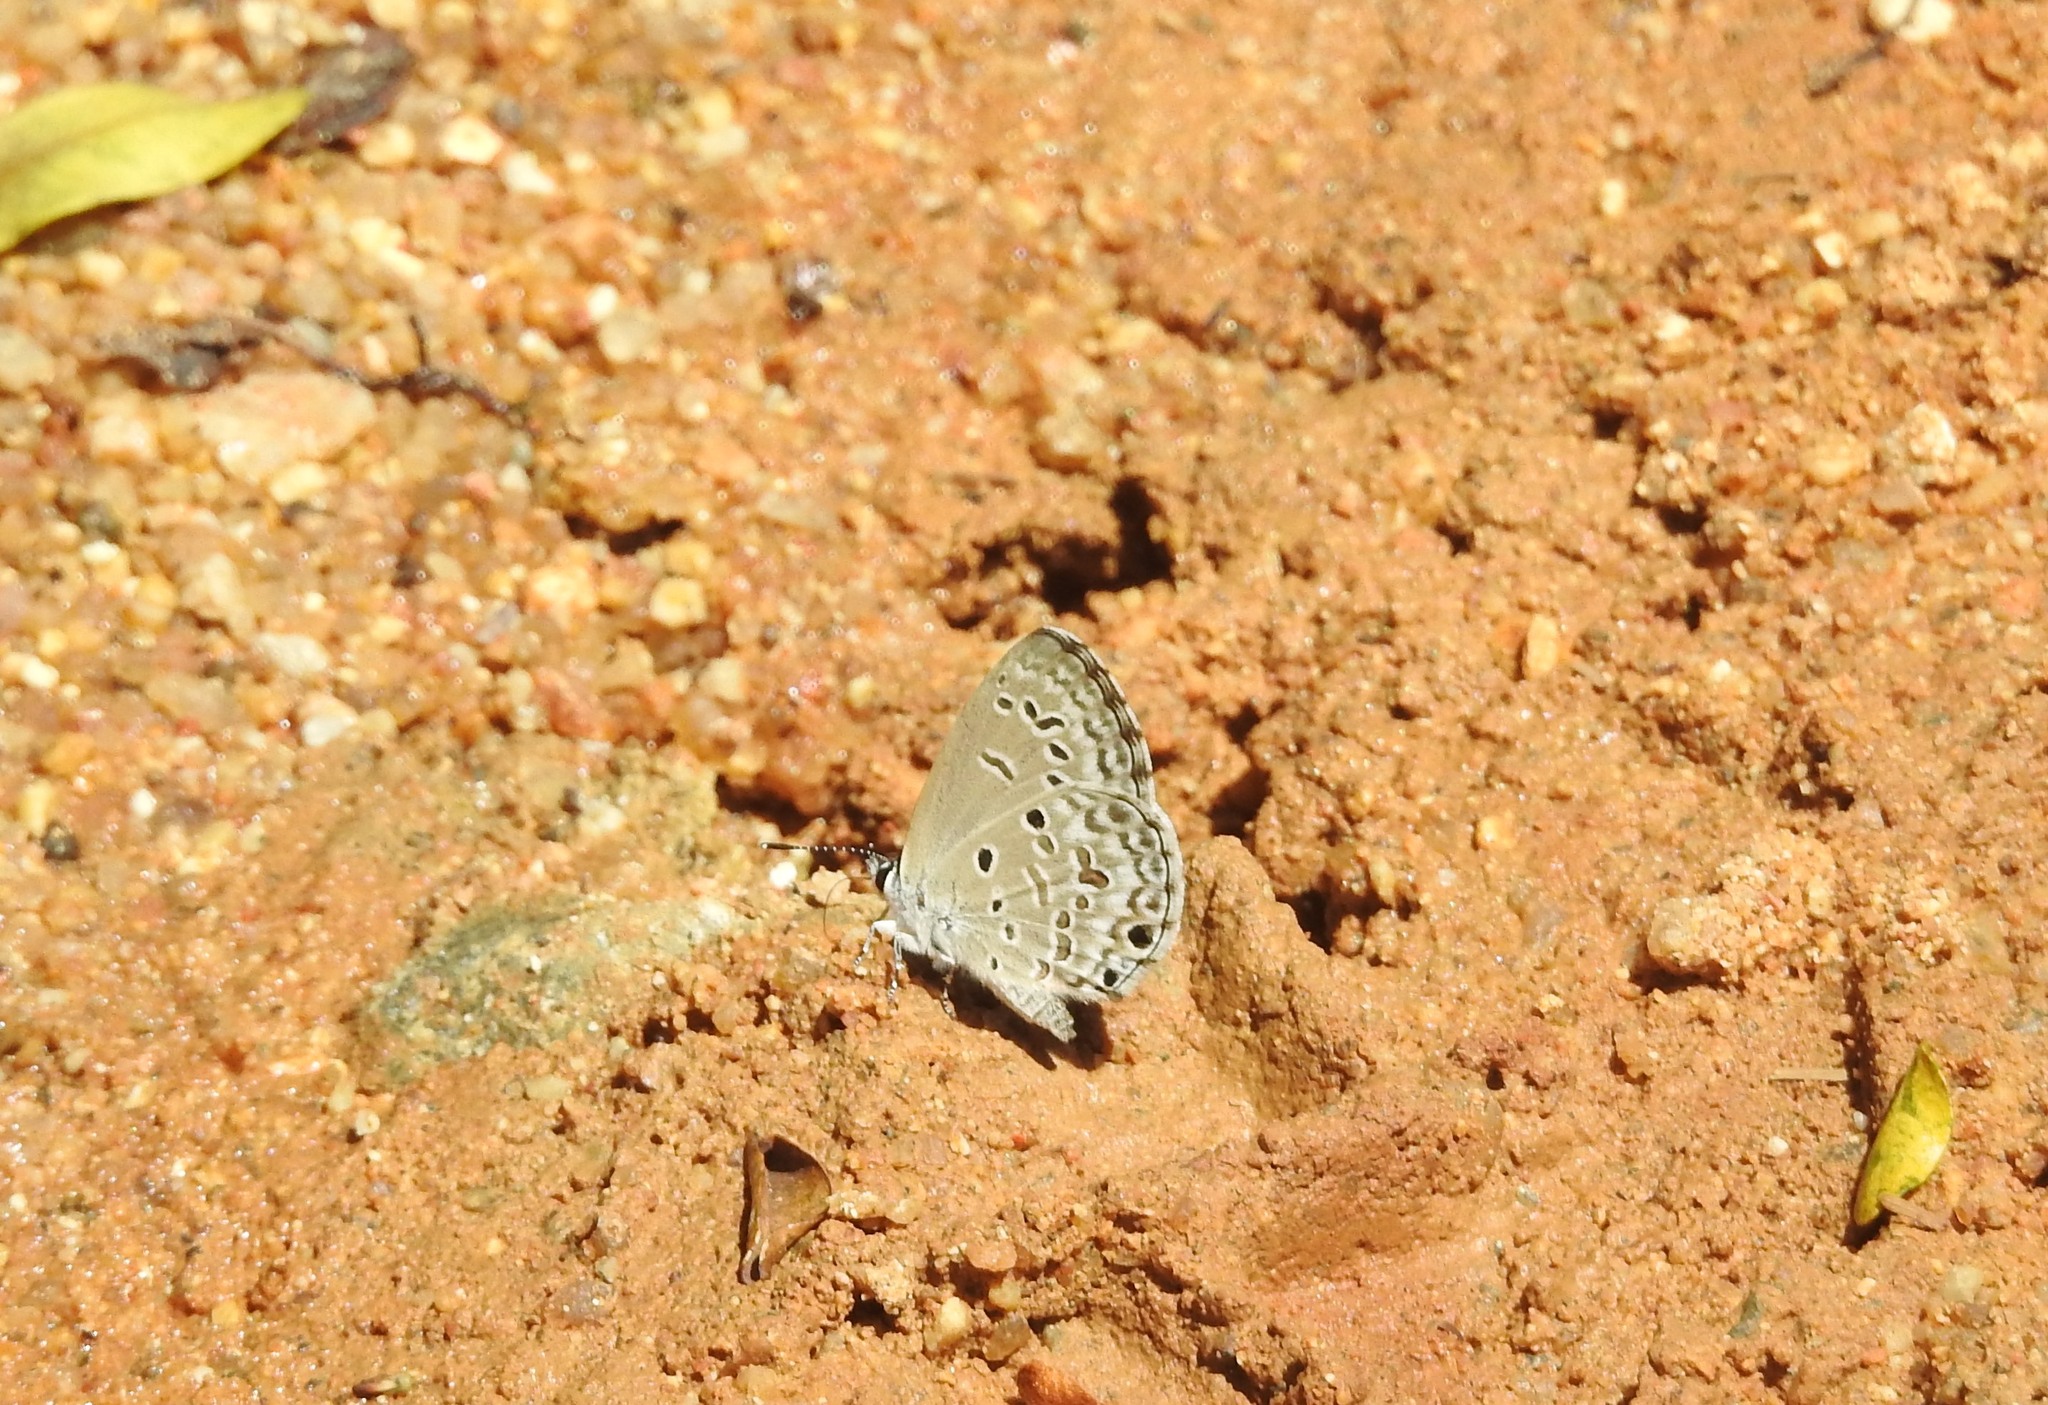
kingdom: Animalia
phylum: Arthropoda
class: Insecta
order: Lepidoptera
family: Lycaenidae
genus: Chilades
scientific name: Chilades laius
